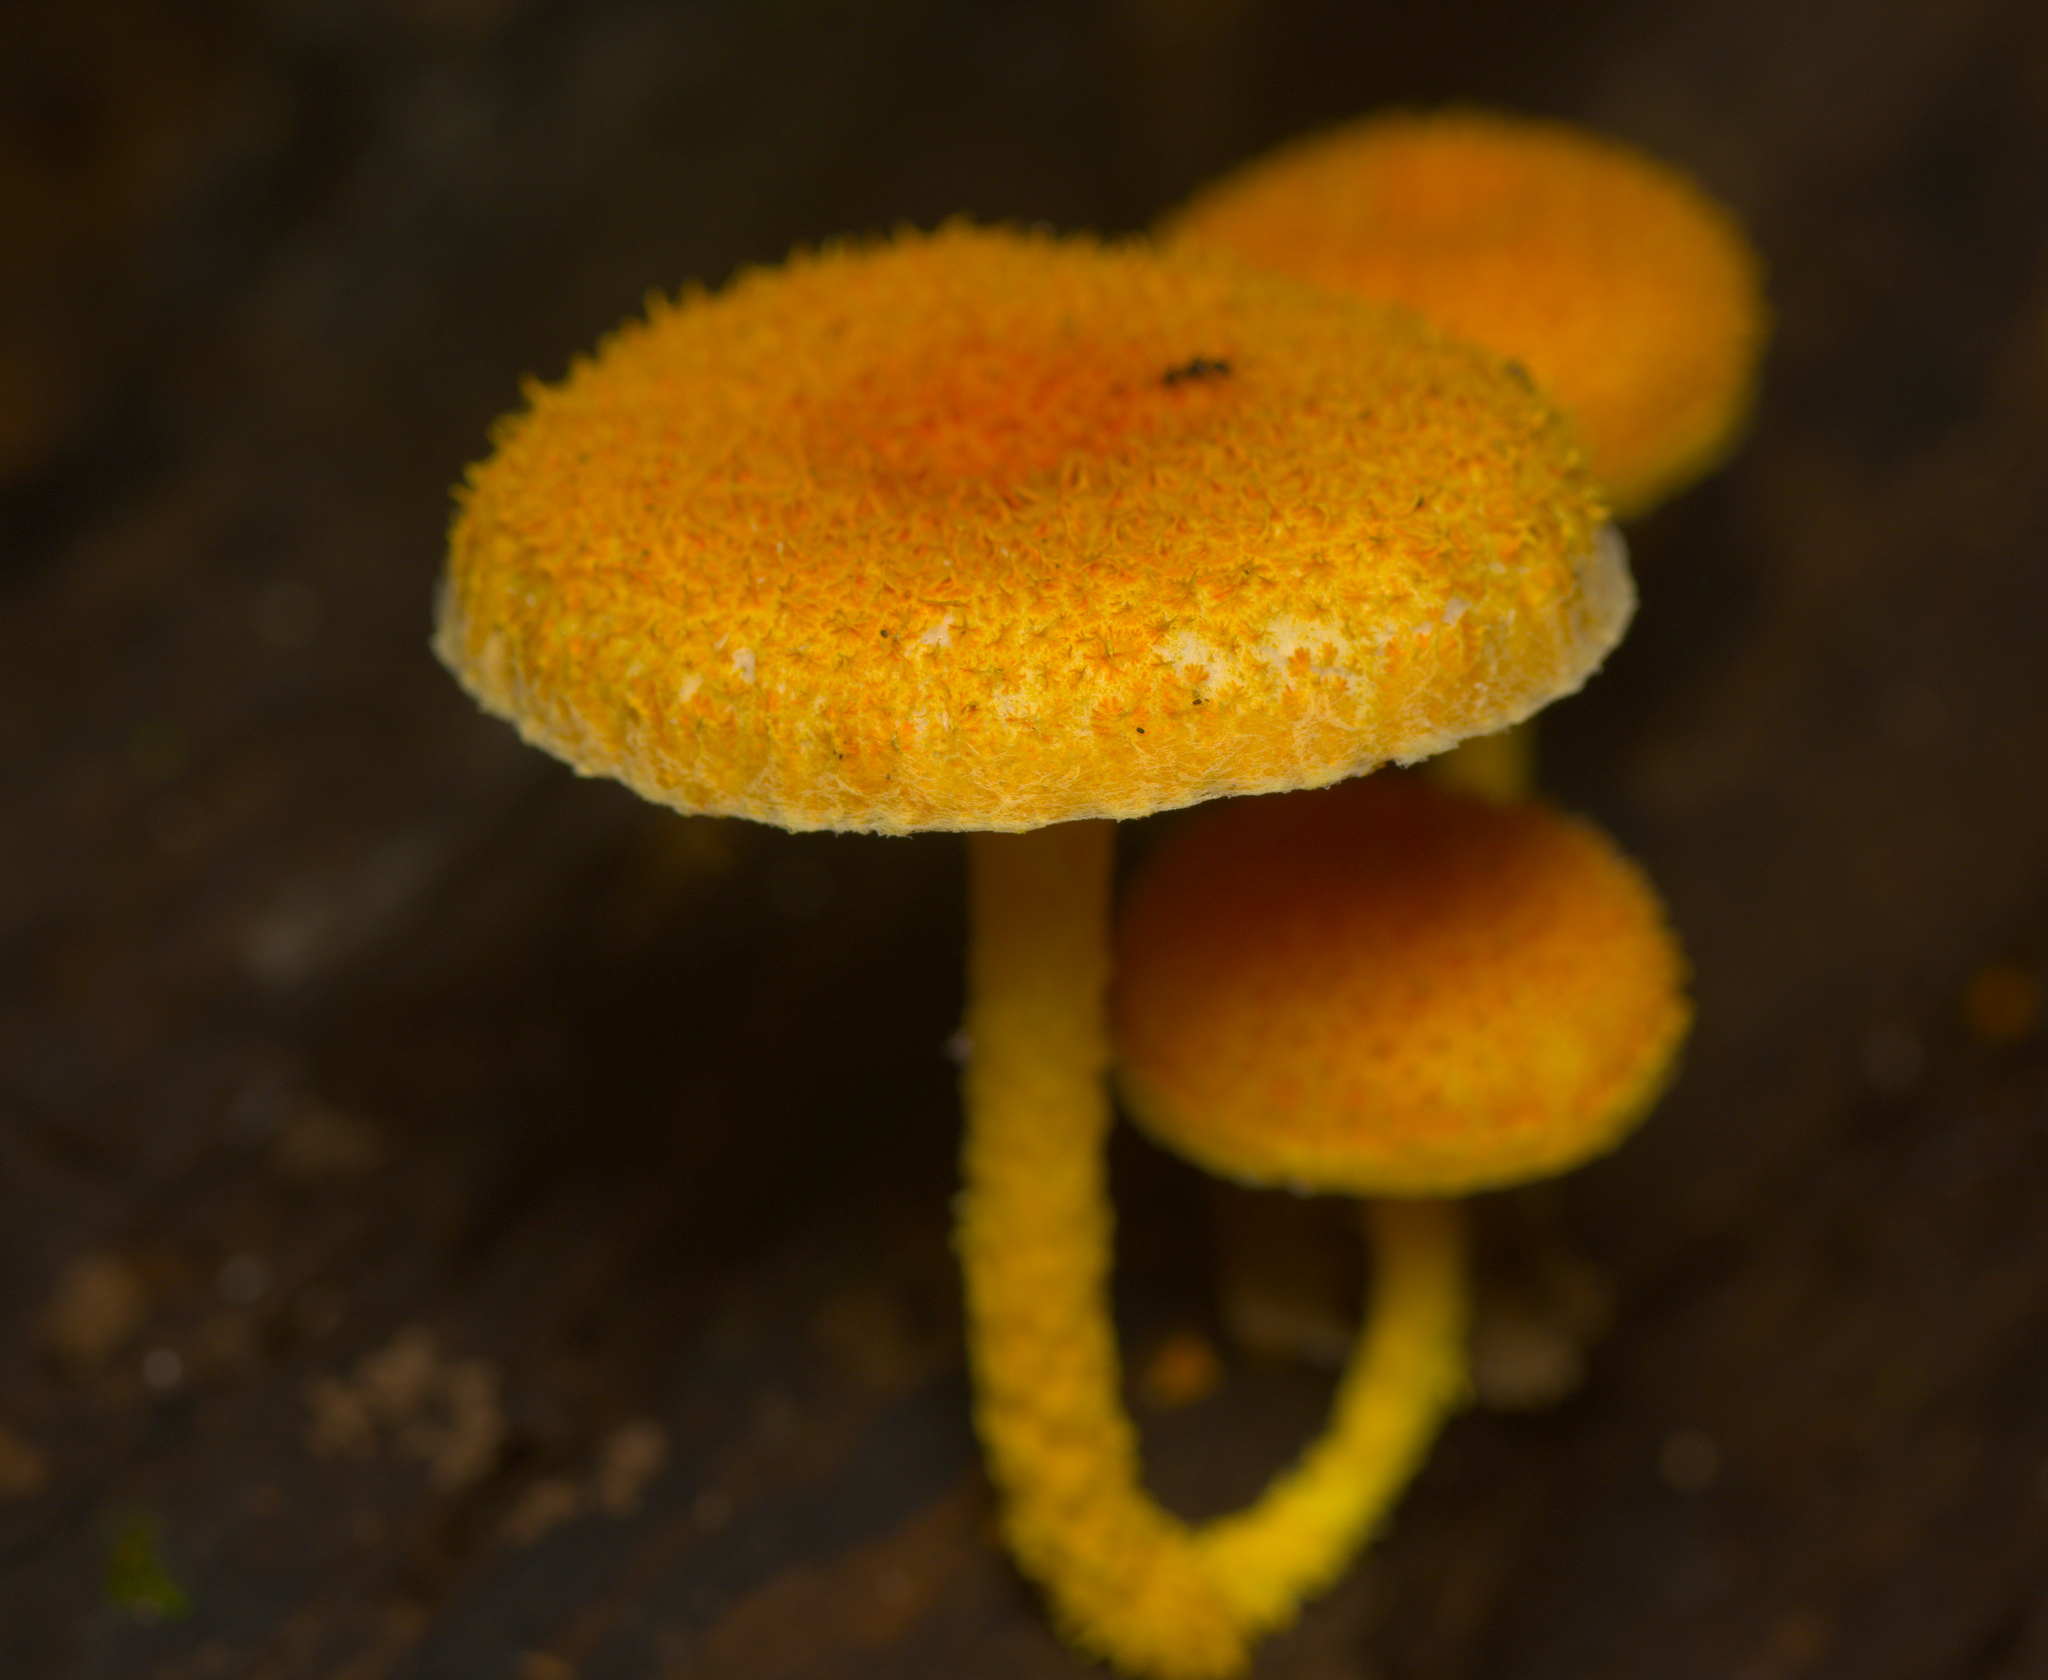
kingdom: Fungi
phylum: Basidiomycota
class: Agaricomycetes
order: Agaricales
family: Physalacriaceae
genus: Cyptotrama
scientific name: Cyptotrama asprata
